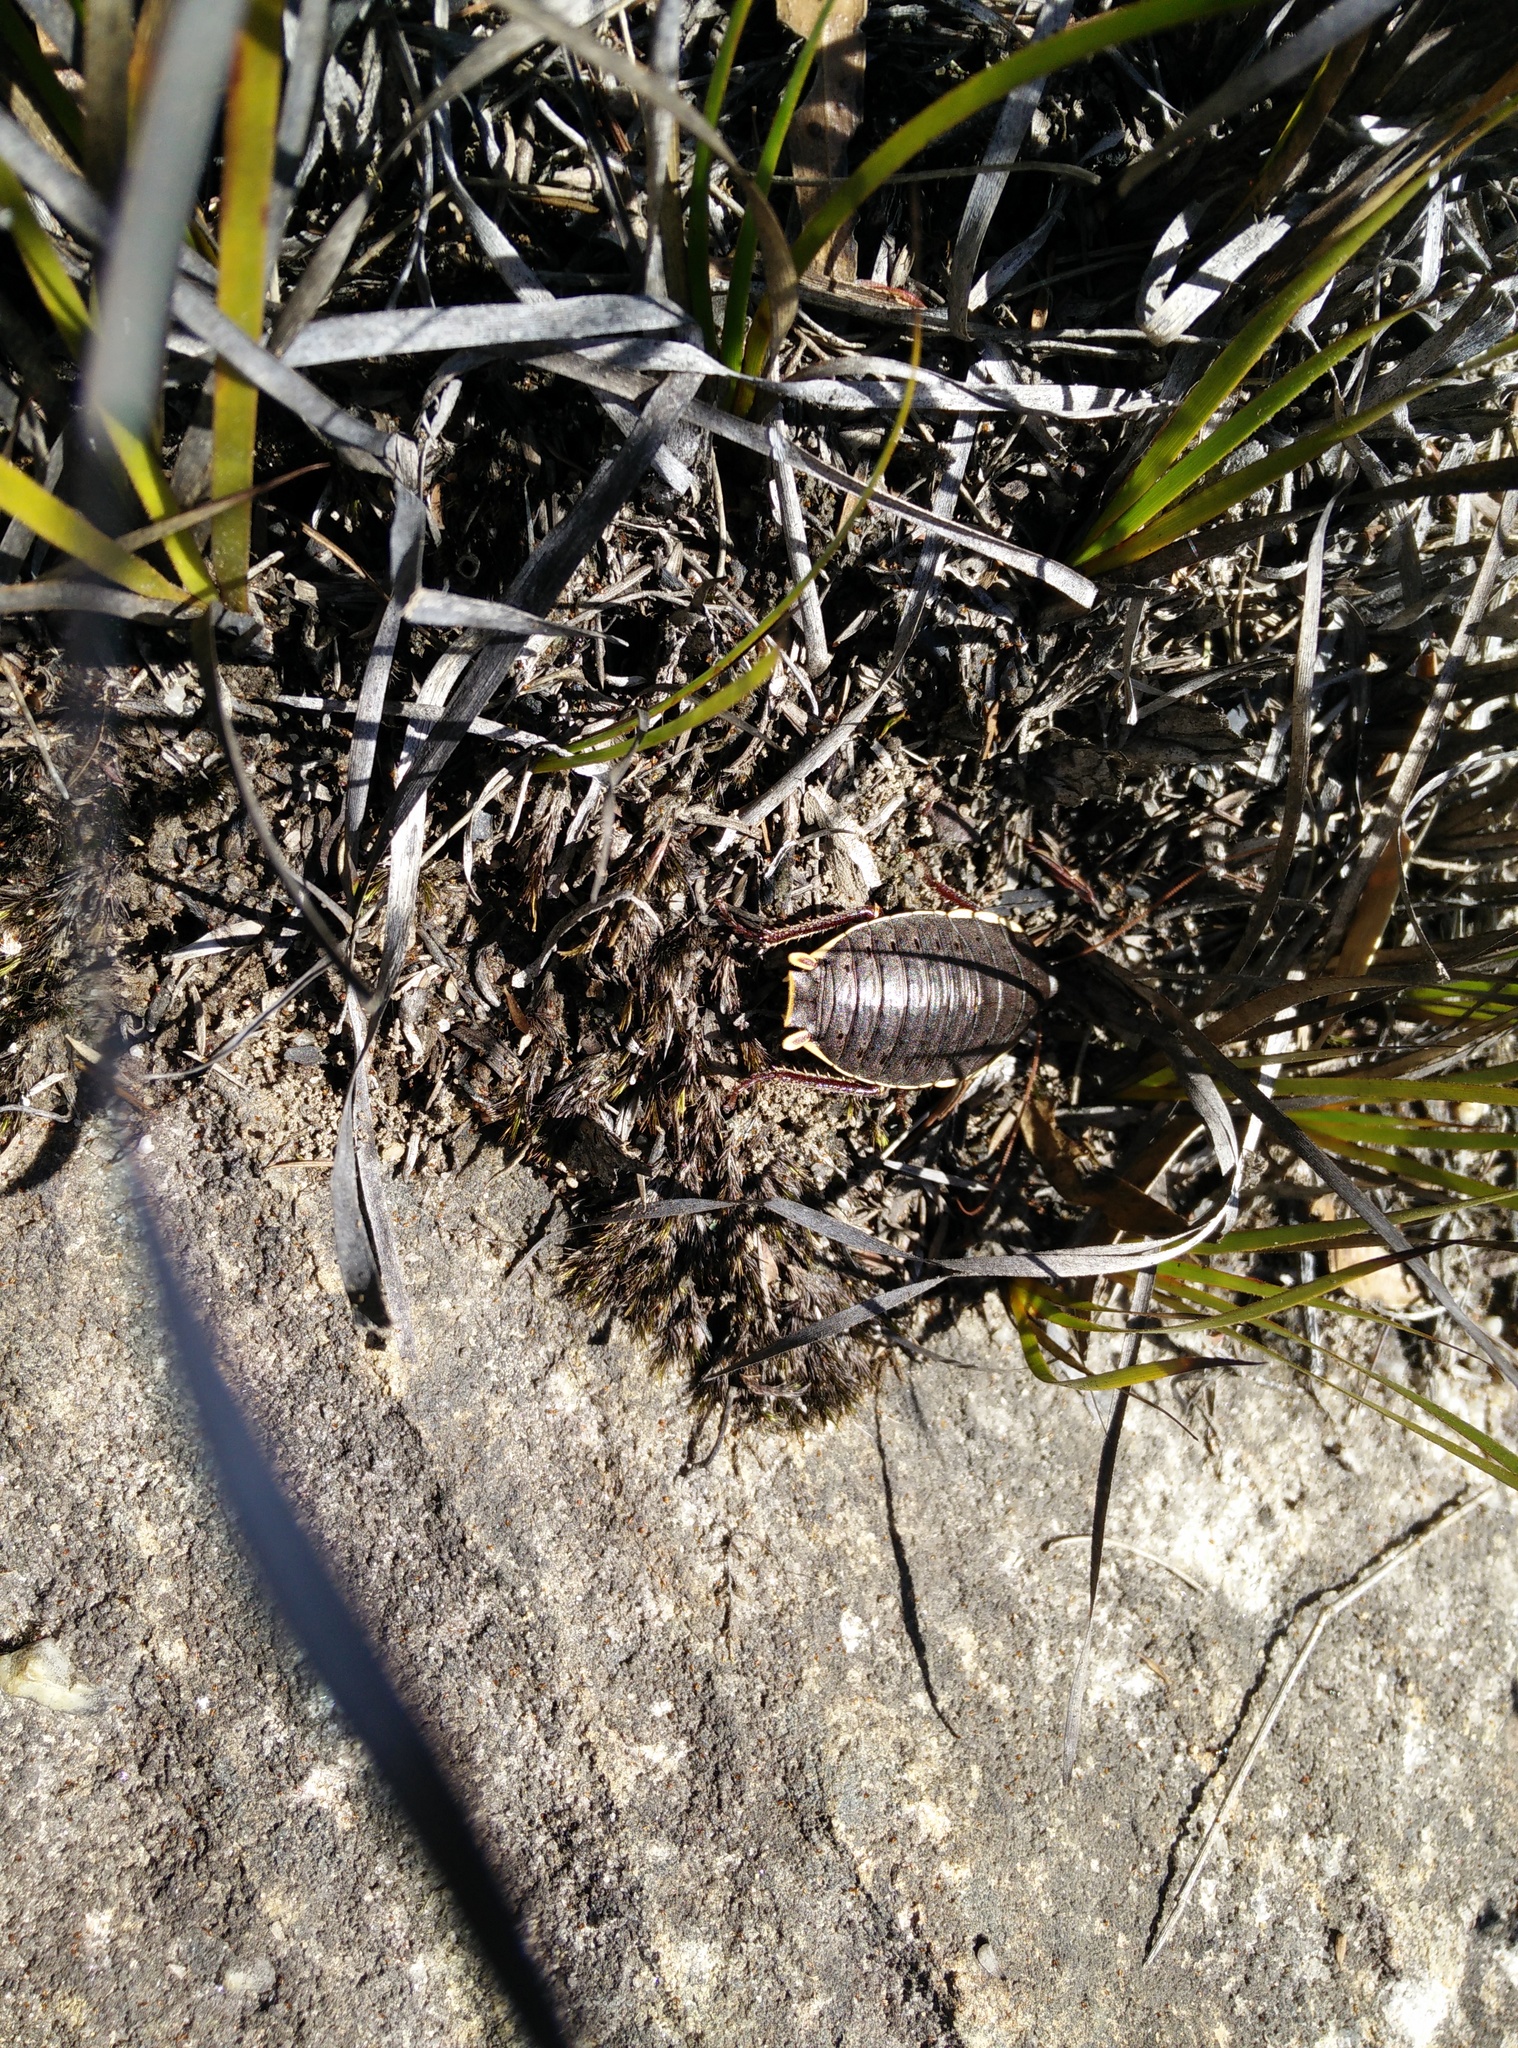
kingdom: Animalia
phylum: Arthropoda
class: Insecta
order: Blattodea
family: Blattidae
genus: Polyzosteria
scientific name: Polyzosteria limbata
